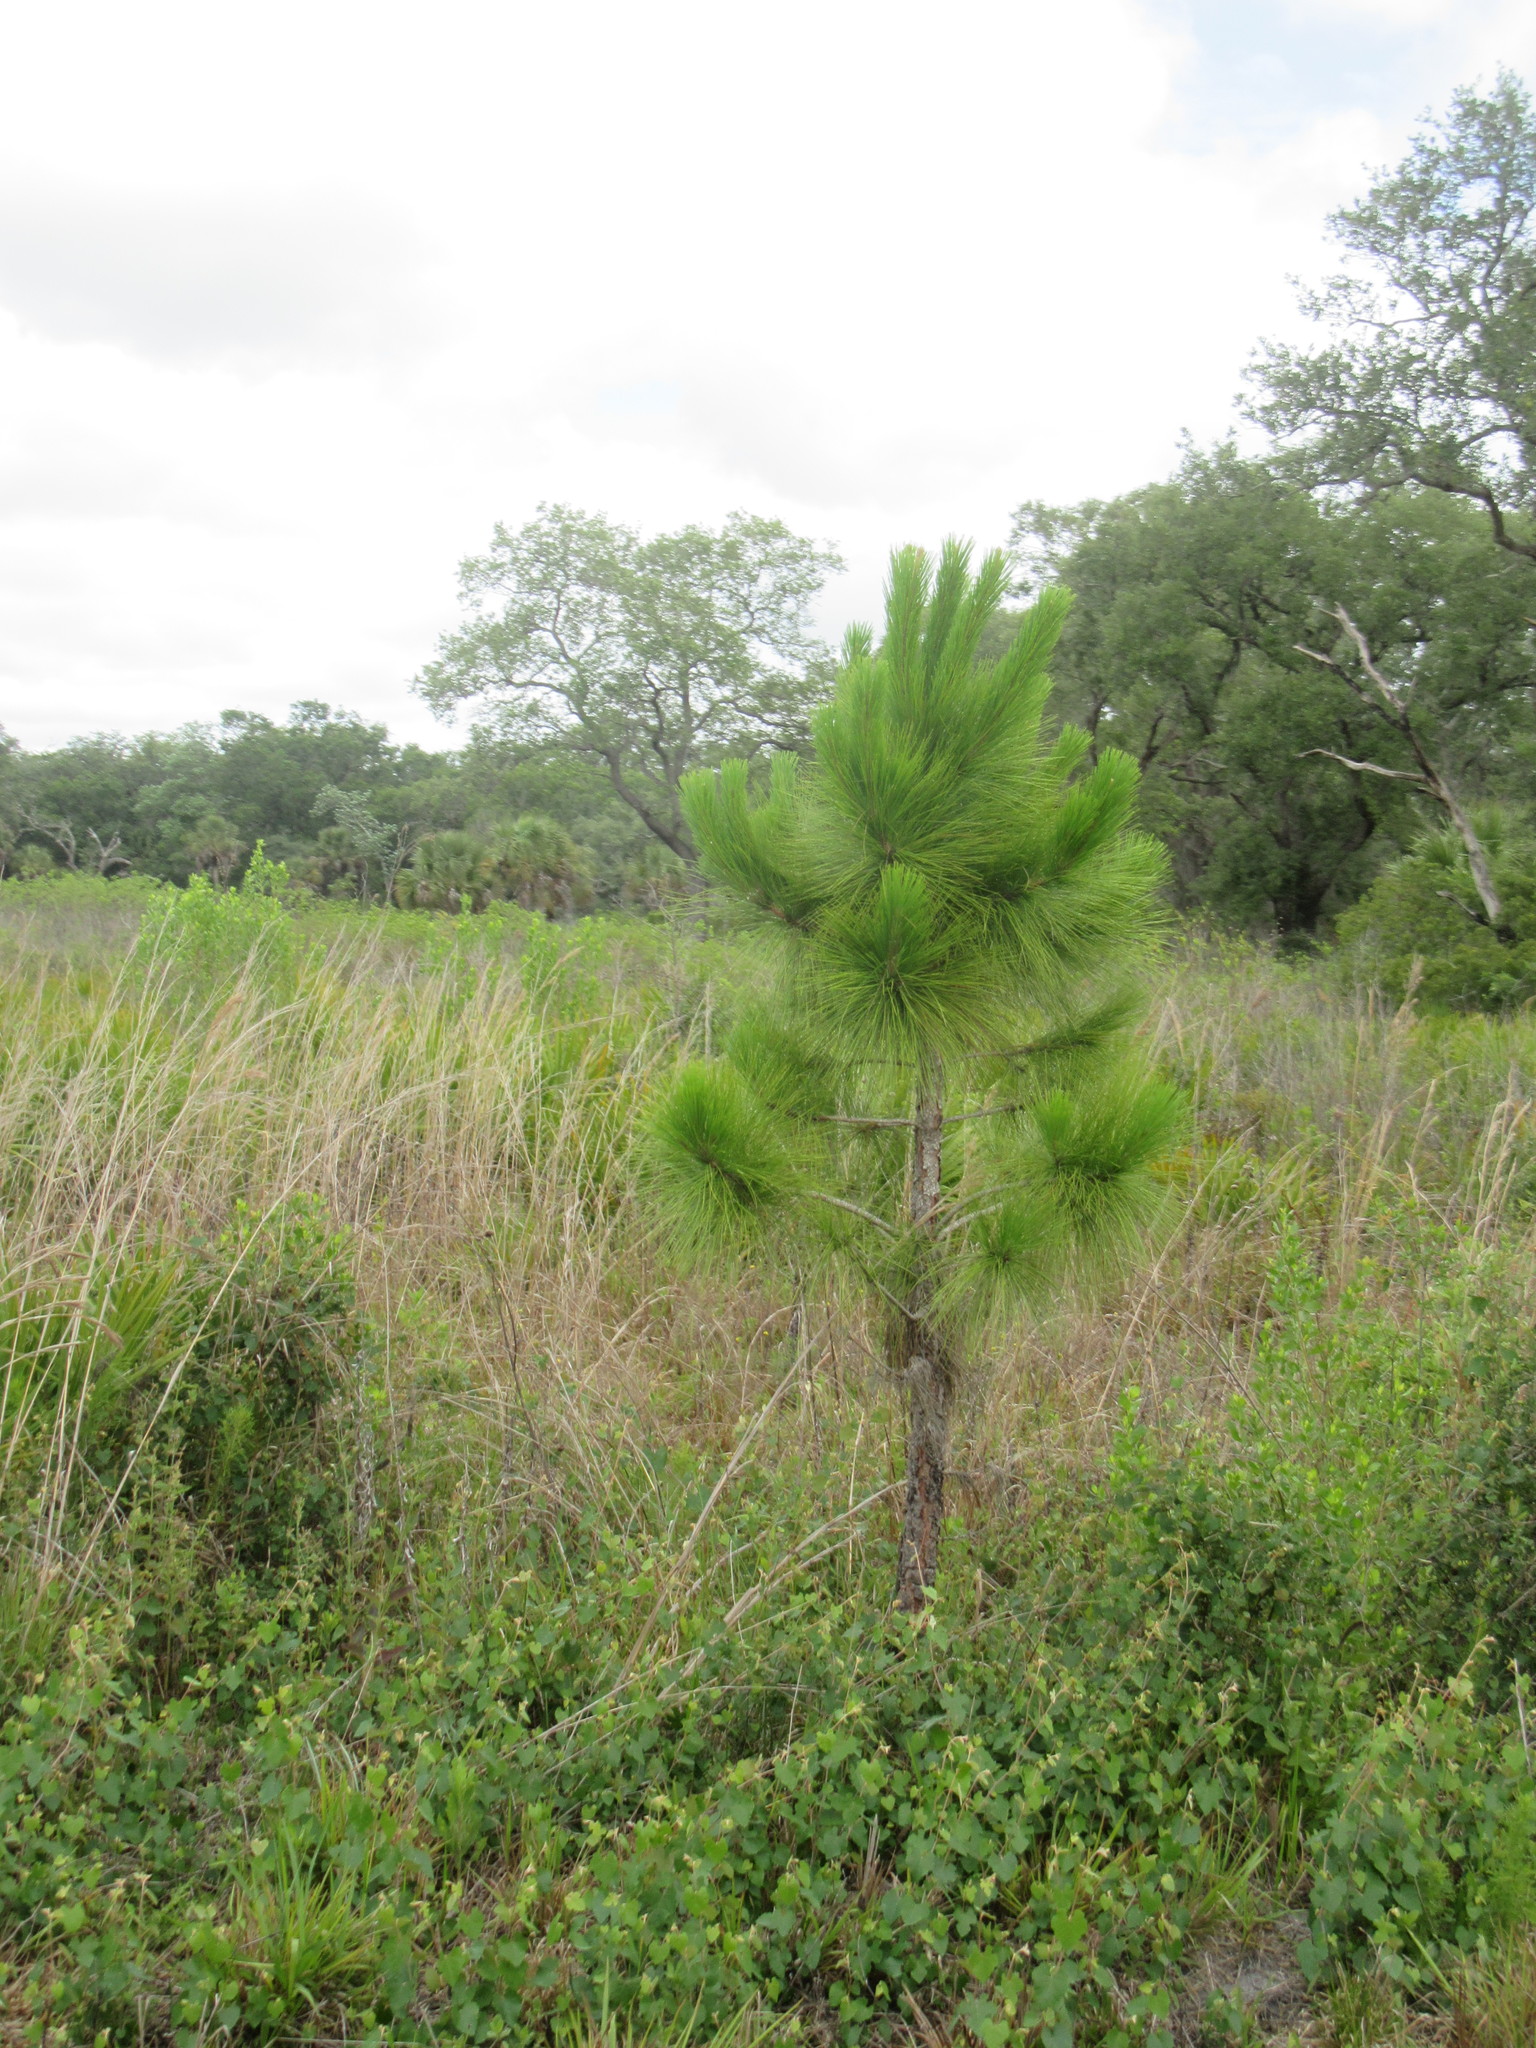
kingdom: Plantae
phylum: Tracheophyta
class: Pinopsida
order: Pinales
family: Pinaceae
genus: Pinus
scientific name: Pinus elliottii
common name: Slash pine
